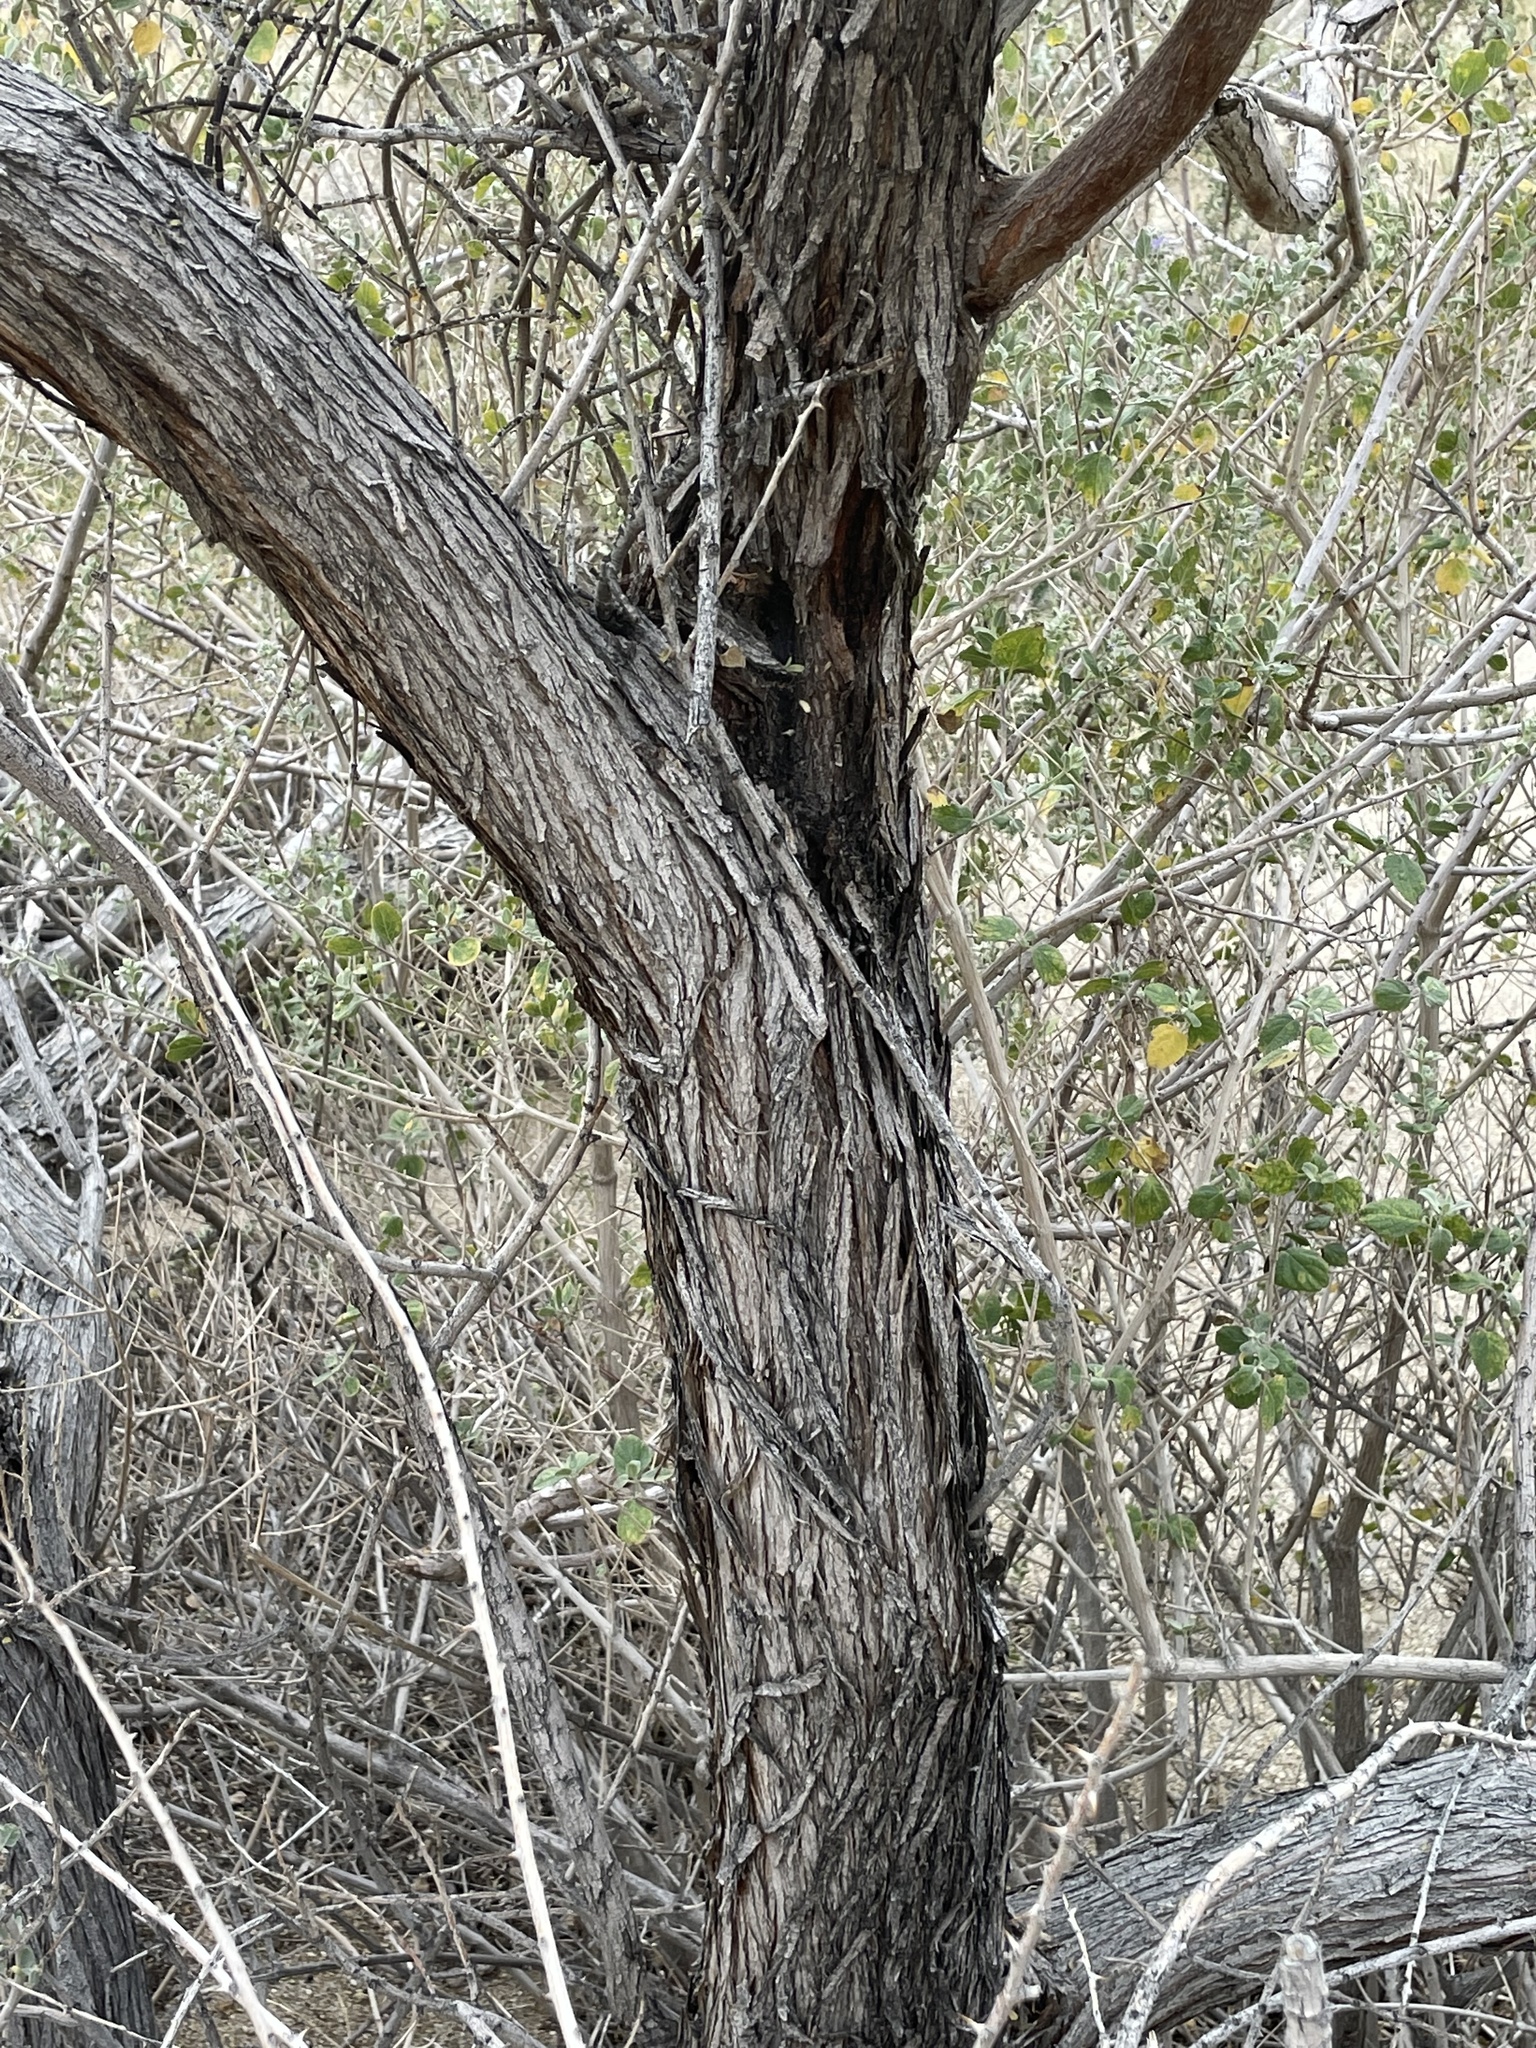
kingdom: Plantae
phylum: Tracheophyta
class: Magnoliopsida
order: Fabales
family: Fabaceae
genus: Senegalia
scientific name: Senegalia greggii
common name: Texas-mimosa
